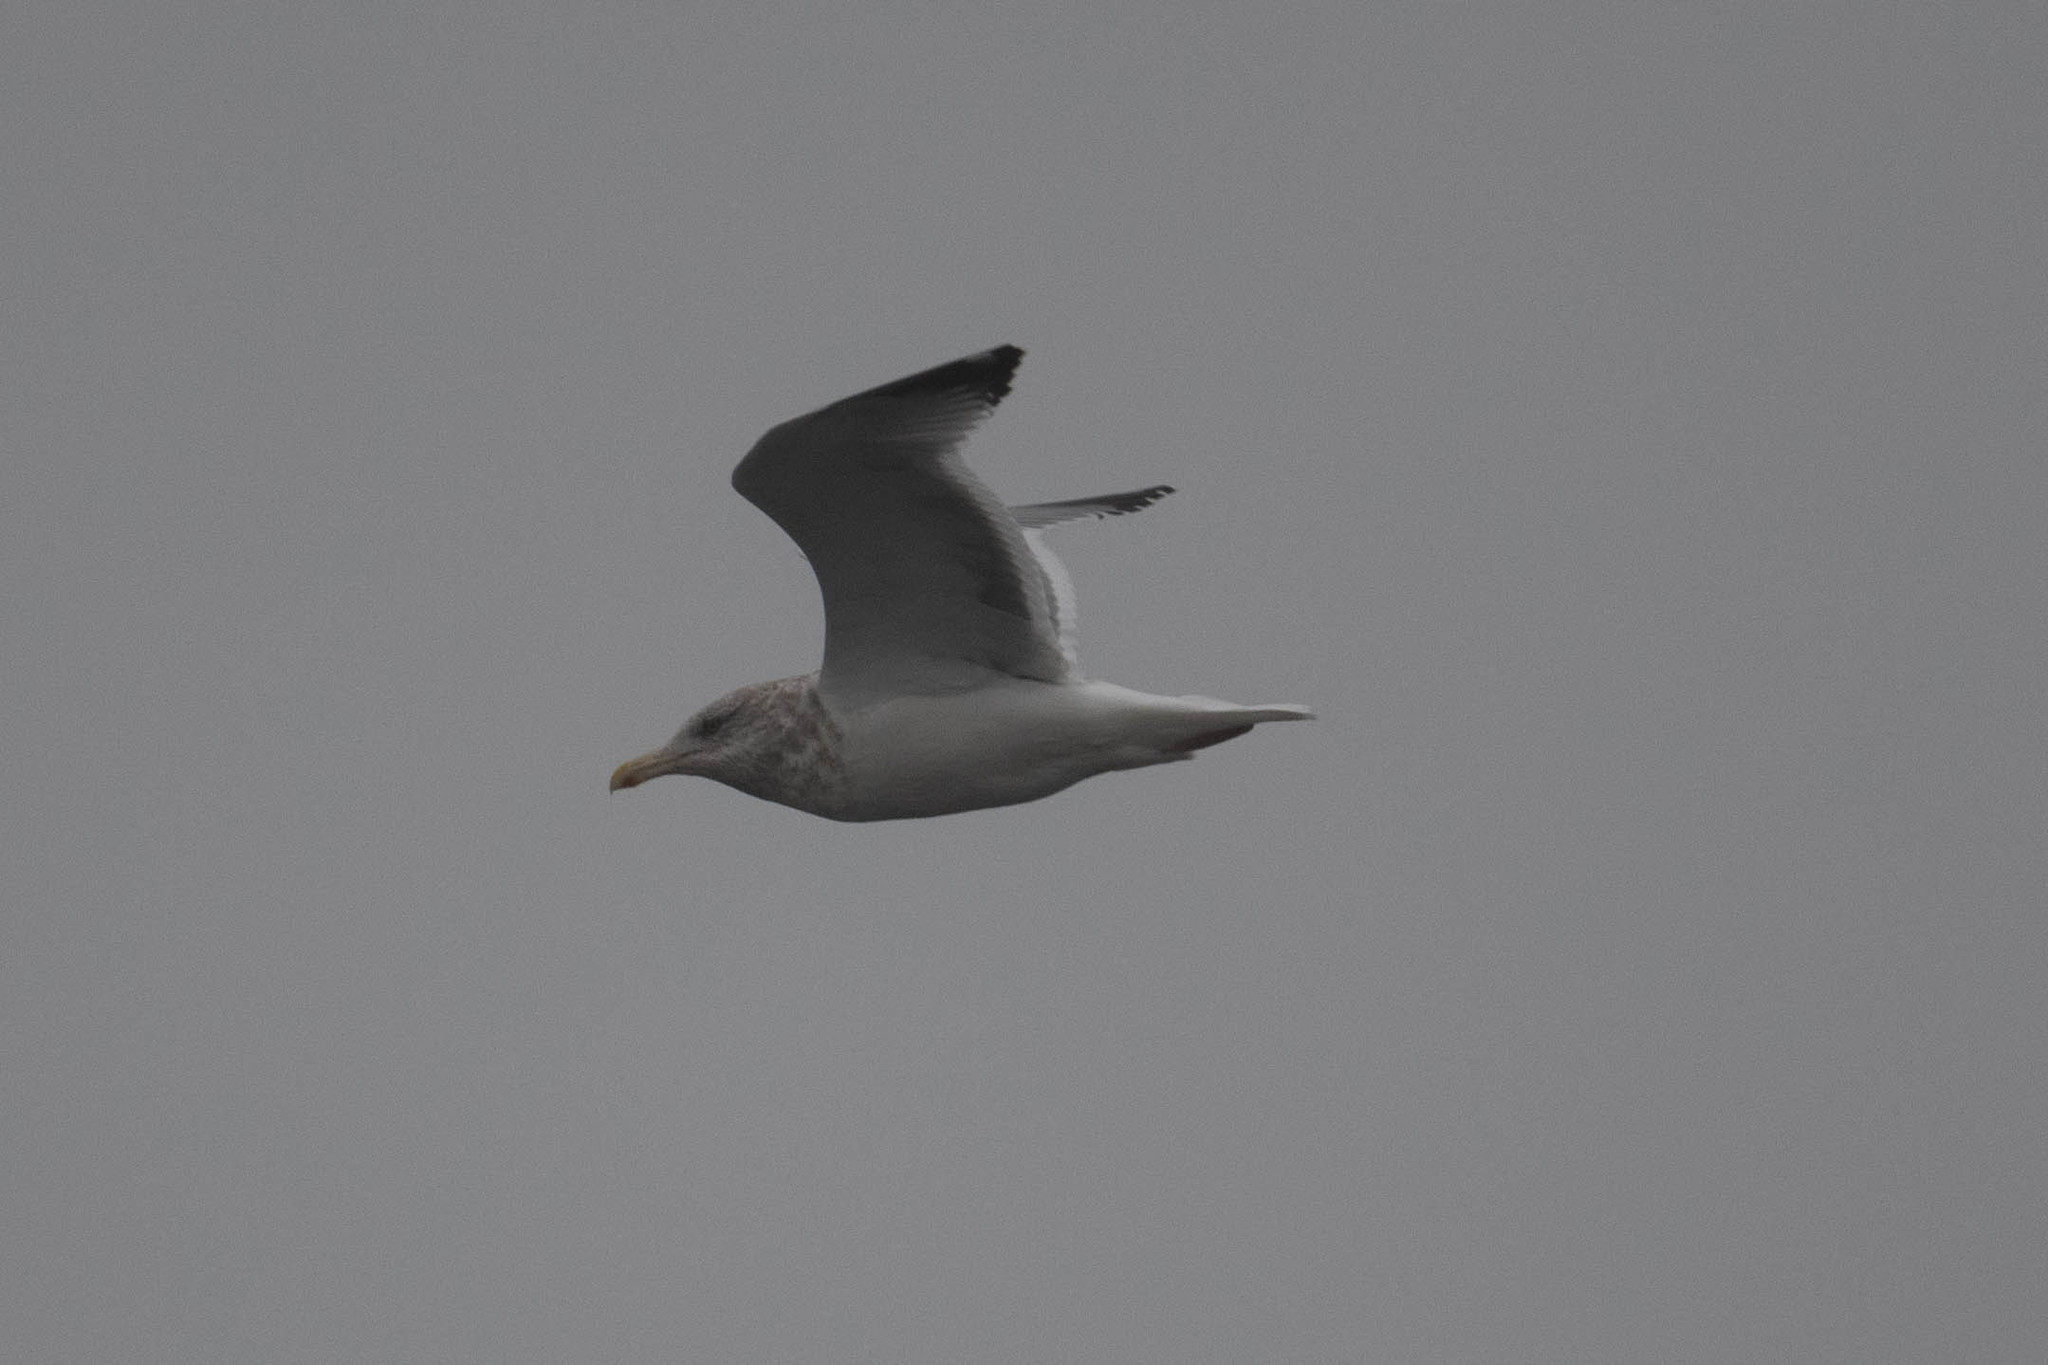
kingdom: Animalia
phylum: Chordata
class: Aves
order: Charadriiformes
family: Laridae
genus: Larus
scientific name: Larus argentatus
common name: Herring gull
